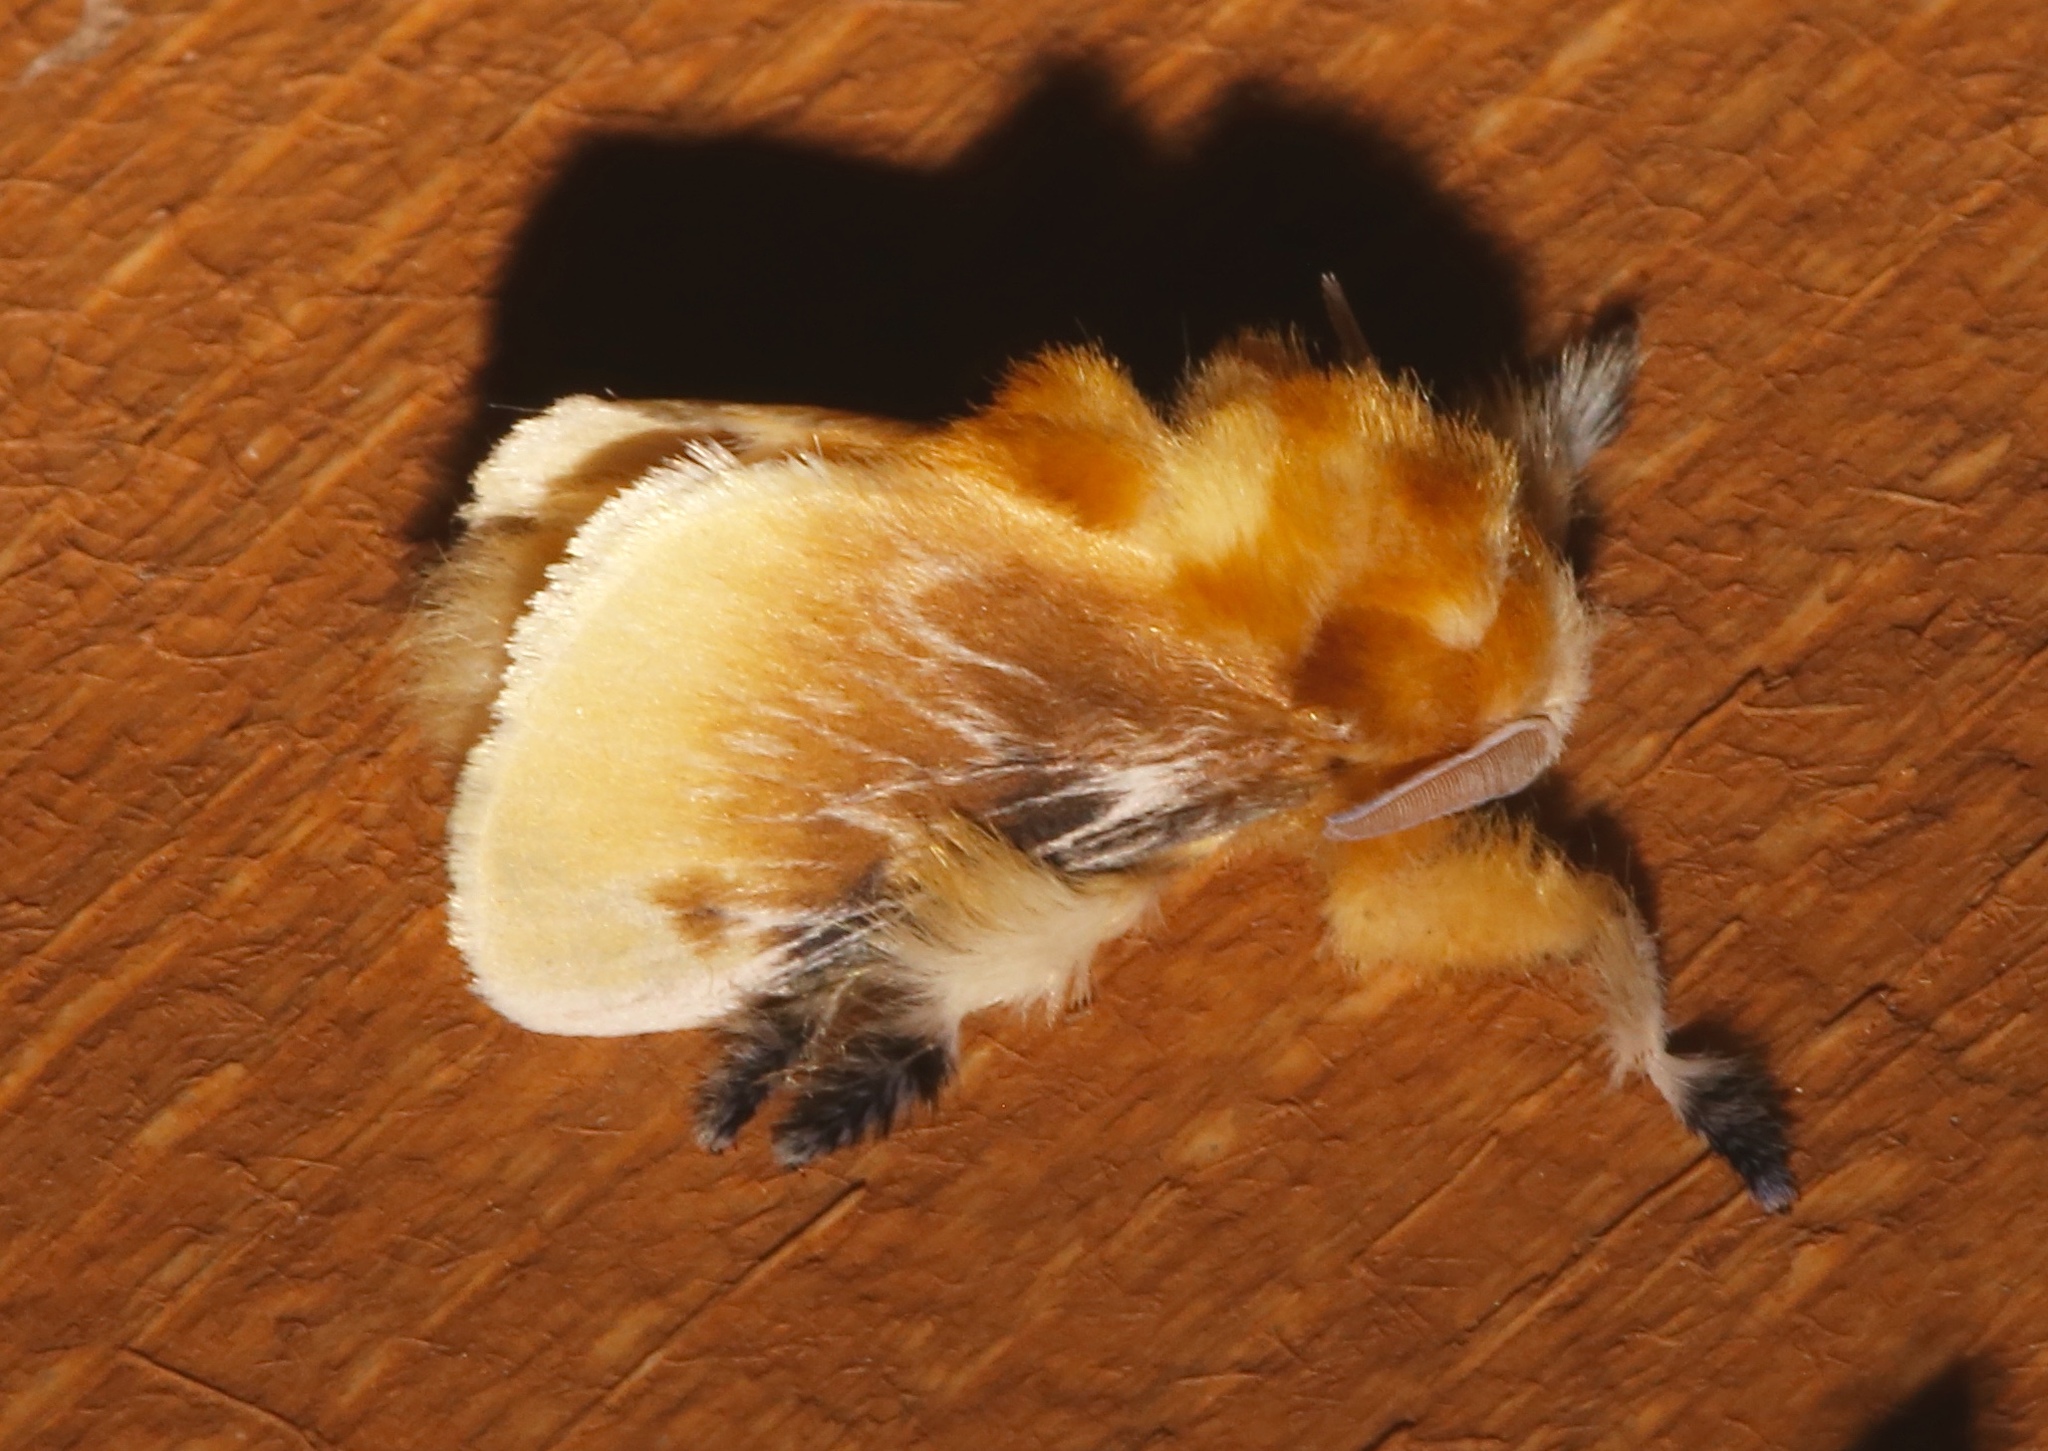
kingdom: Animalia
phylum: Arthropoda
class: Insecta
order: Lepidoptera
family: Megalopygidae
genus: Megalopyge
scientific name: Megalopyge opercularis
